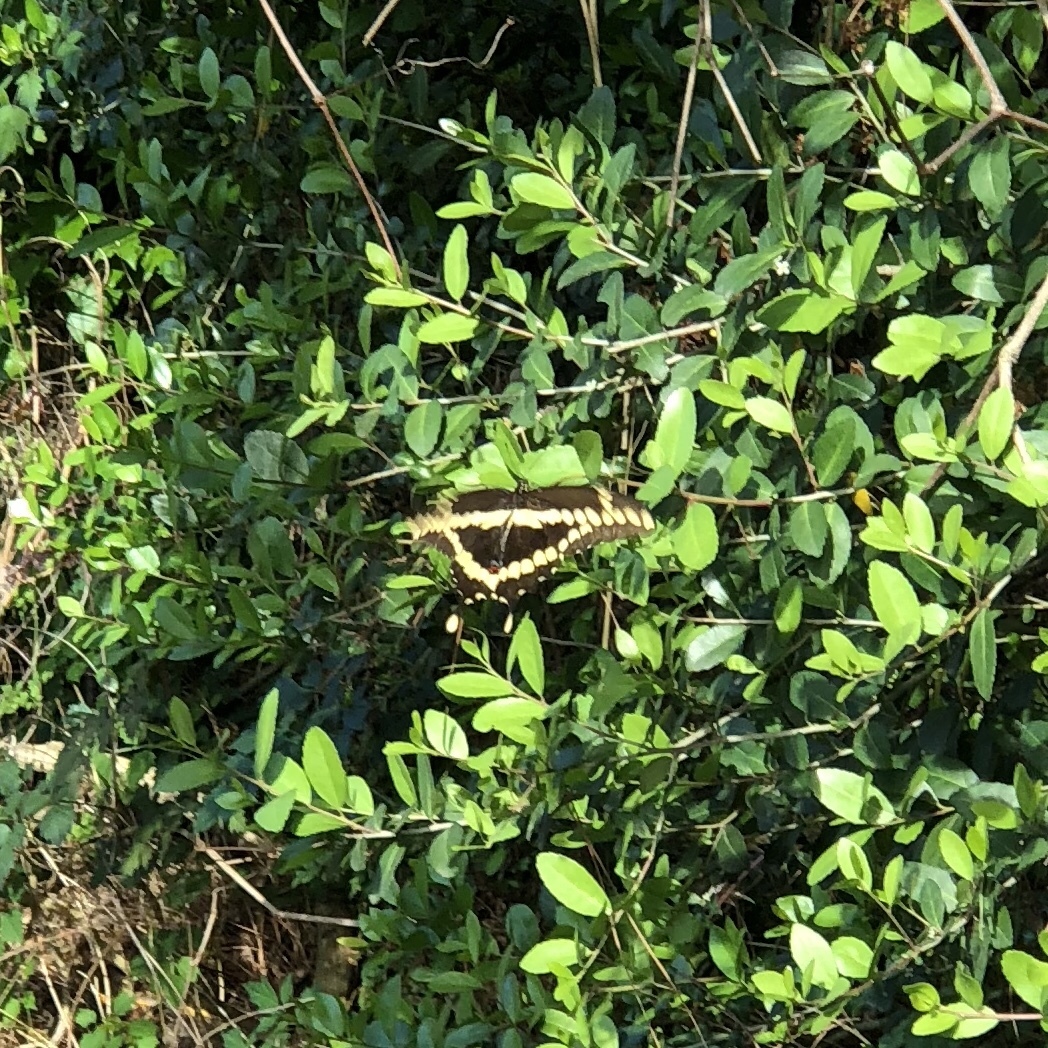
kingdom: Animalia
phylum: Arthropoda
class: Insecta
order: Lepidoptera
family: Papilionidae
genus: Papilio
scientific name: Papilio cresphontes
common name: Giant swallowtail
